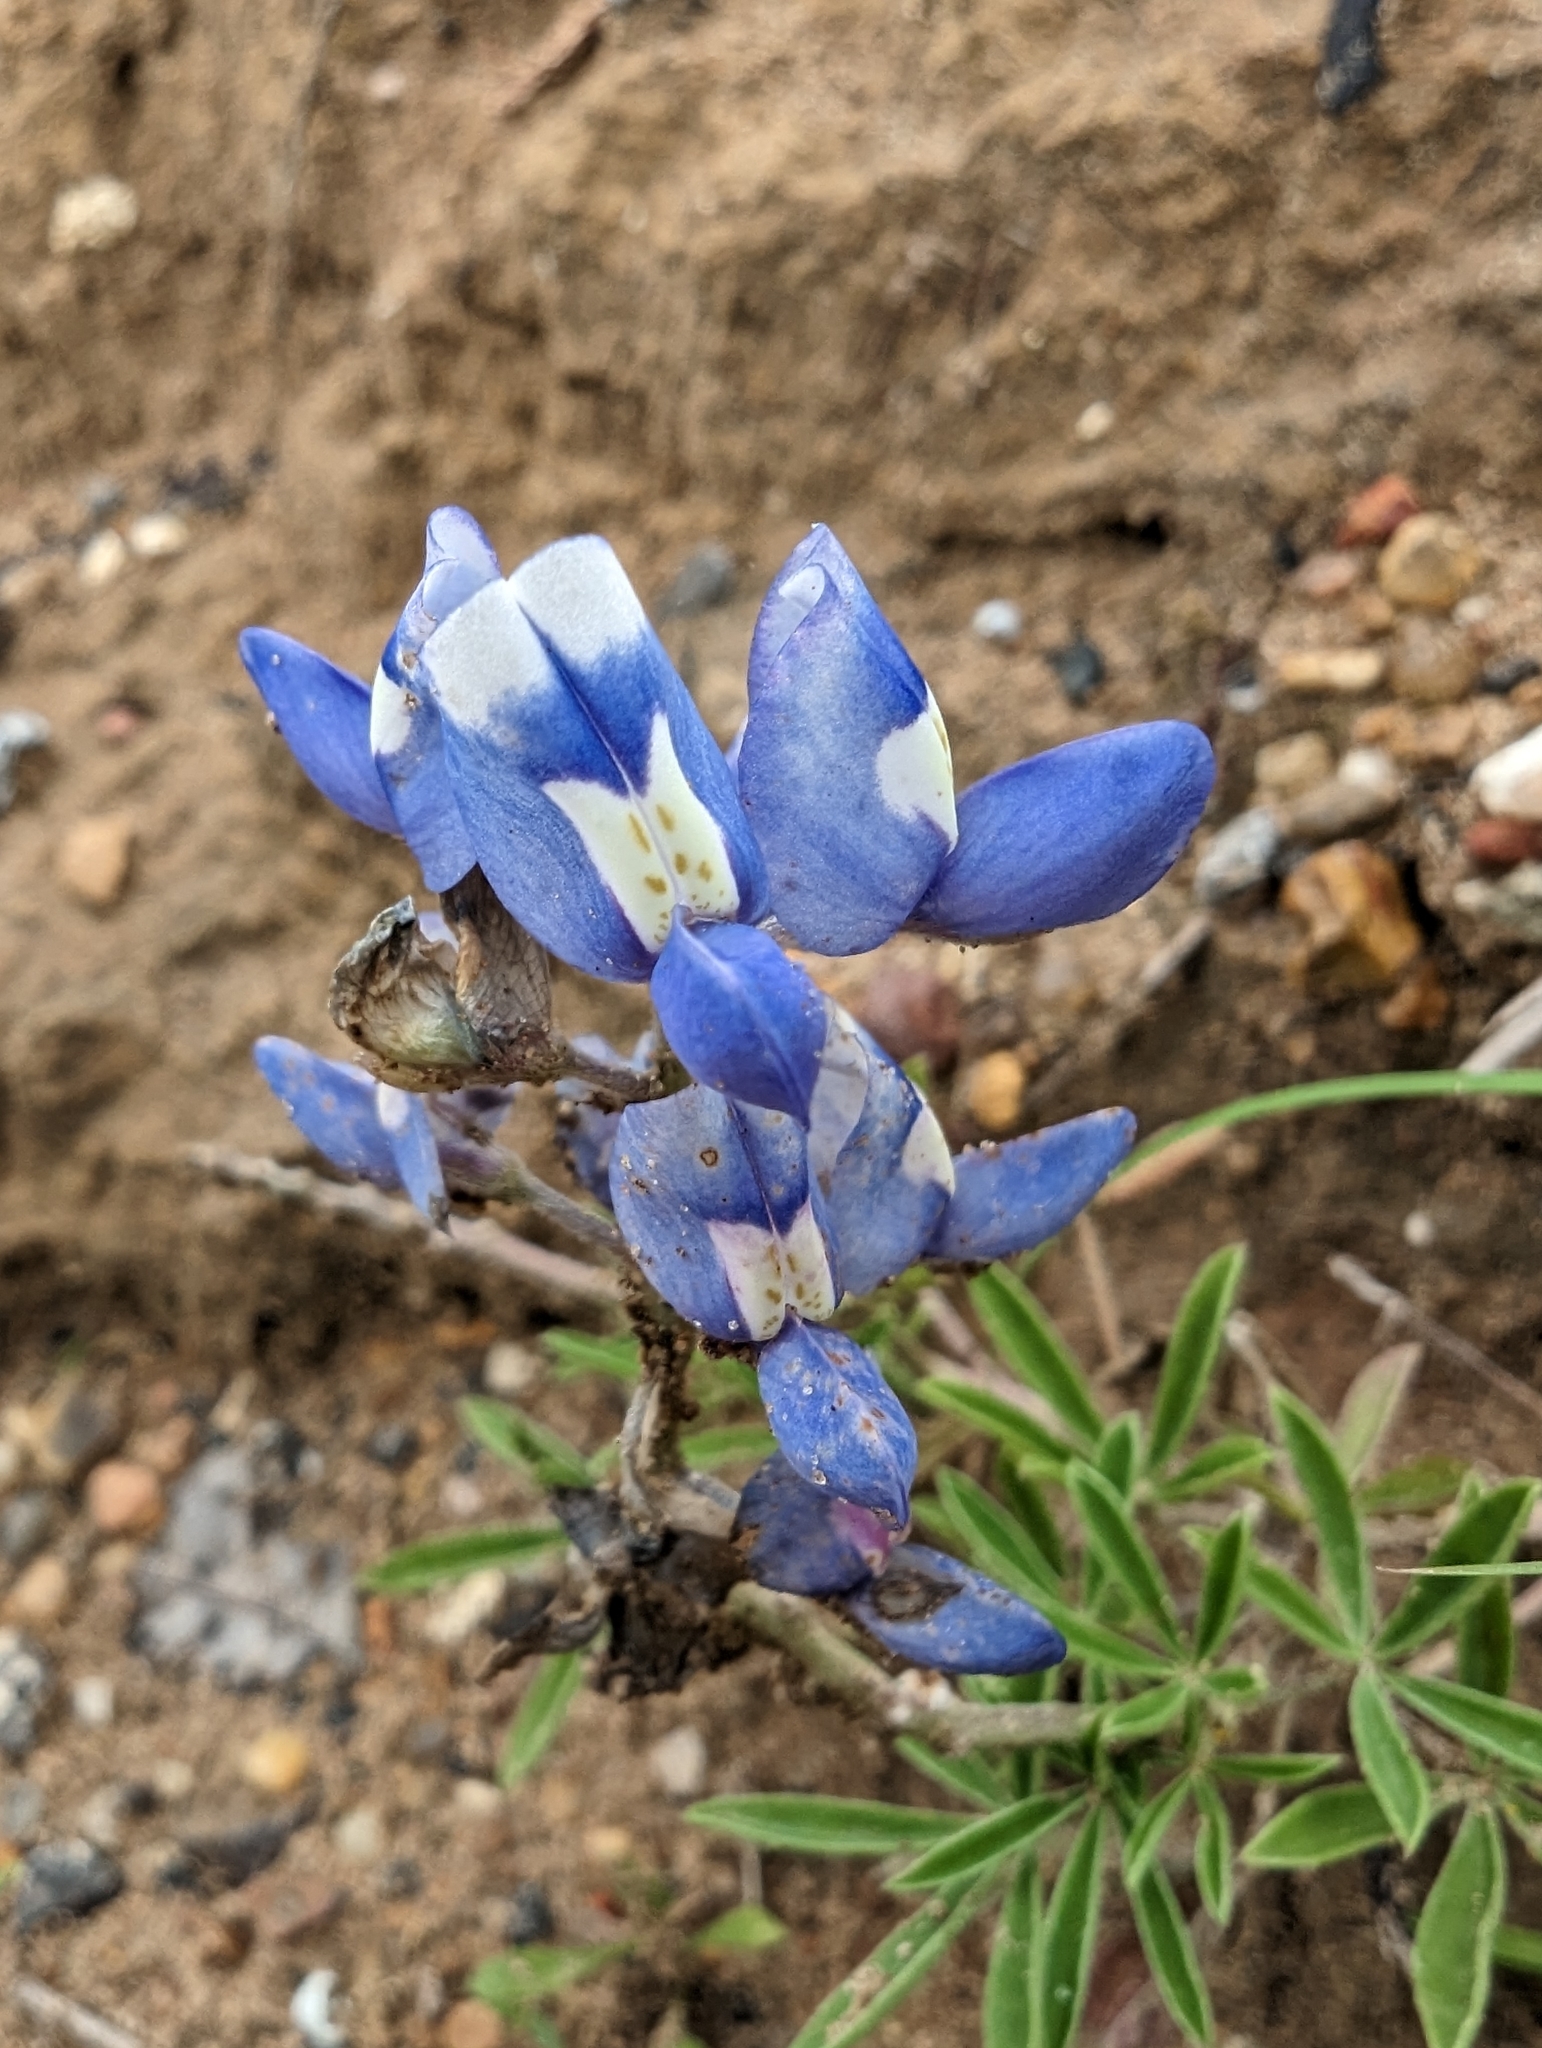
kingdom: Plantae
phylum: Tracheophyta
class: Magnoliopsida
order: Fabales
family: Fabaceae
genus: Lupinus
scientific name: Lupinus texensis
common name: Texas bluebonnet
